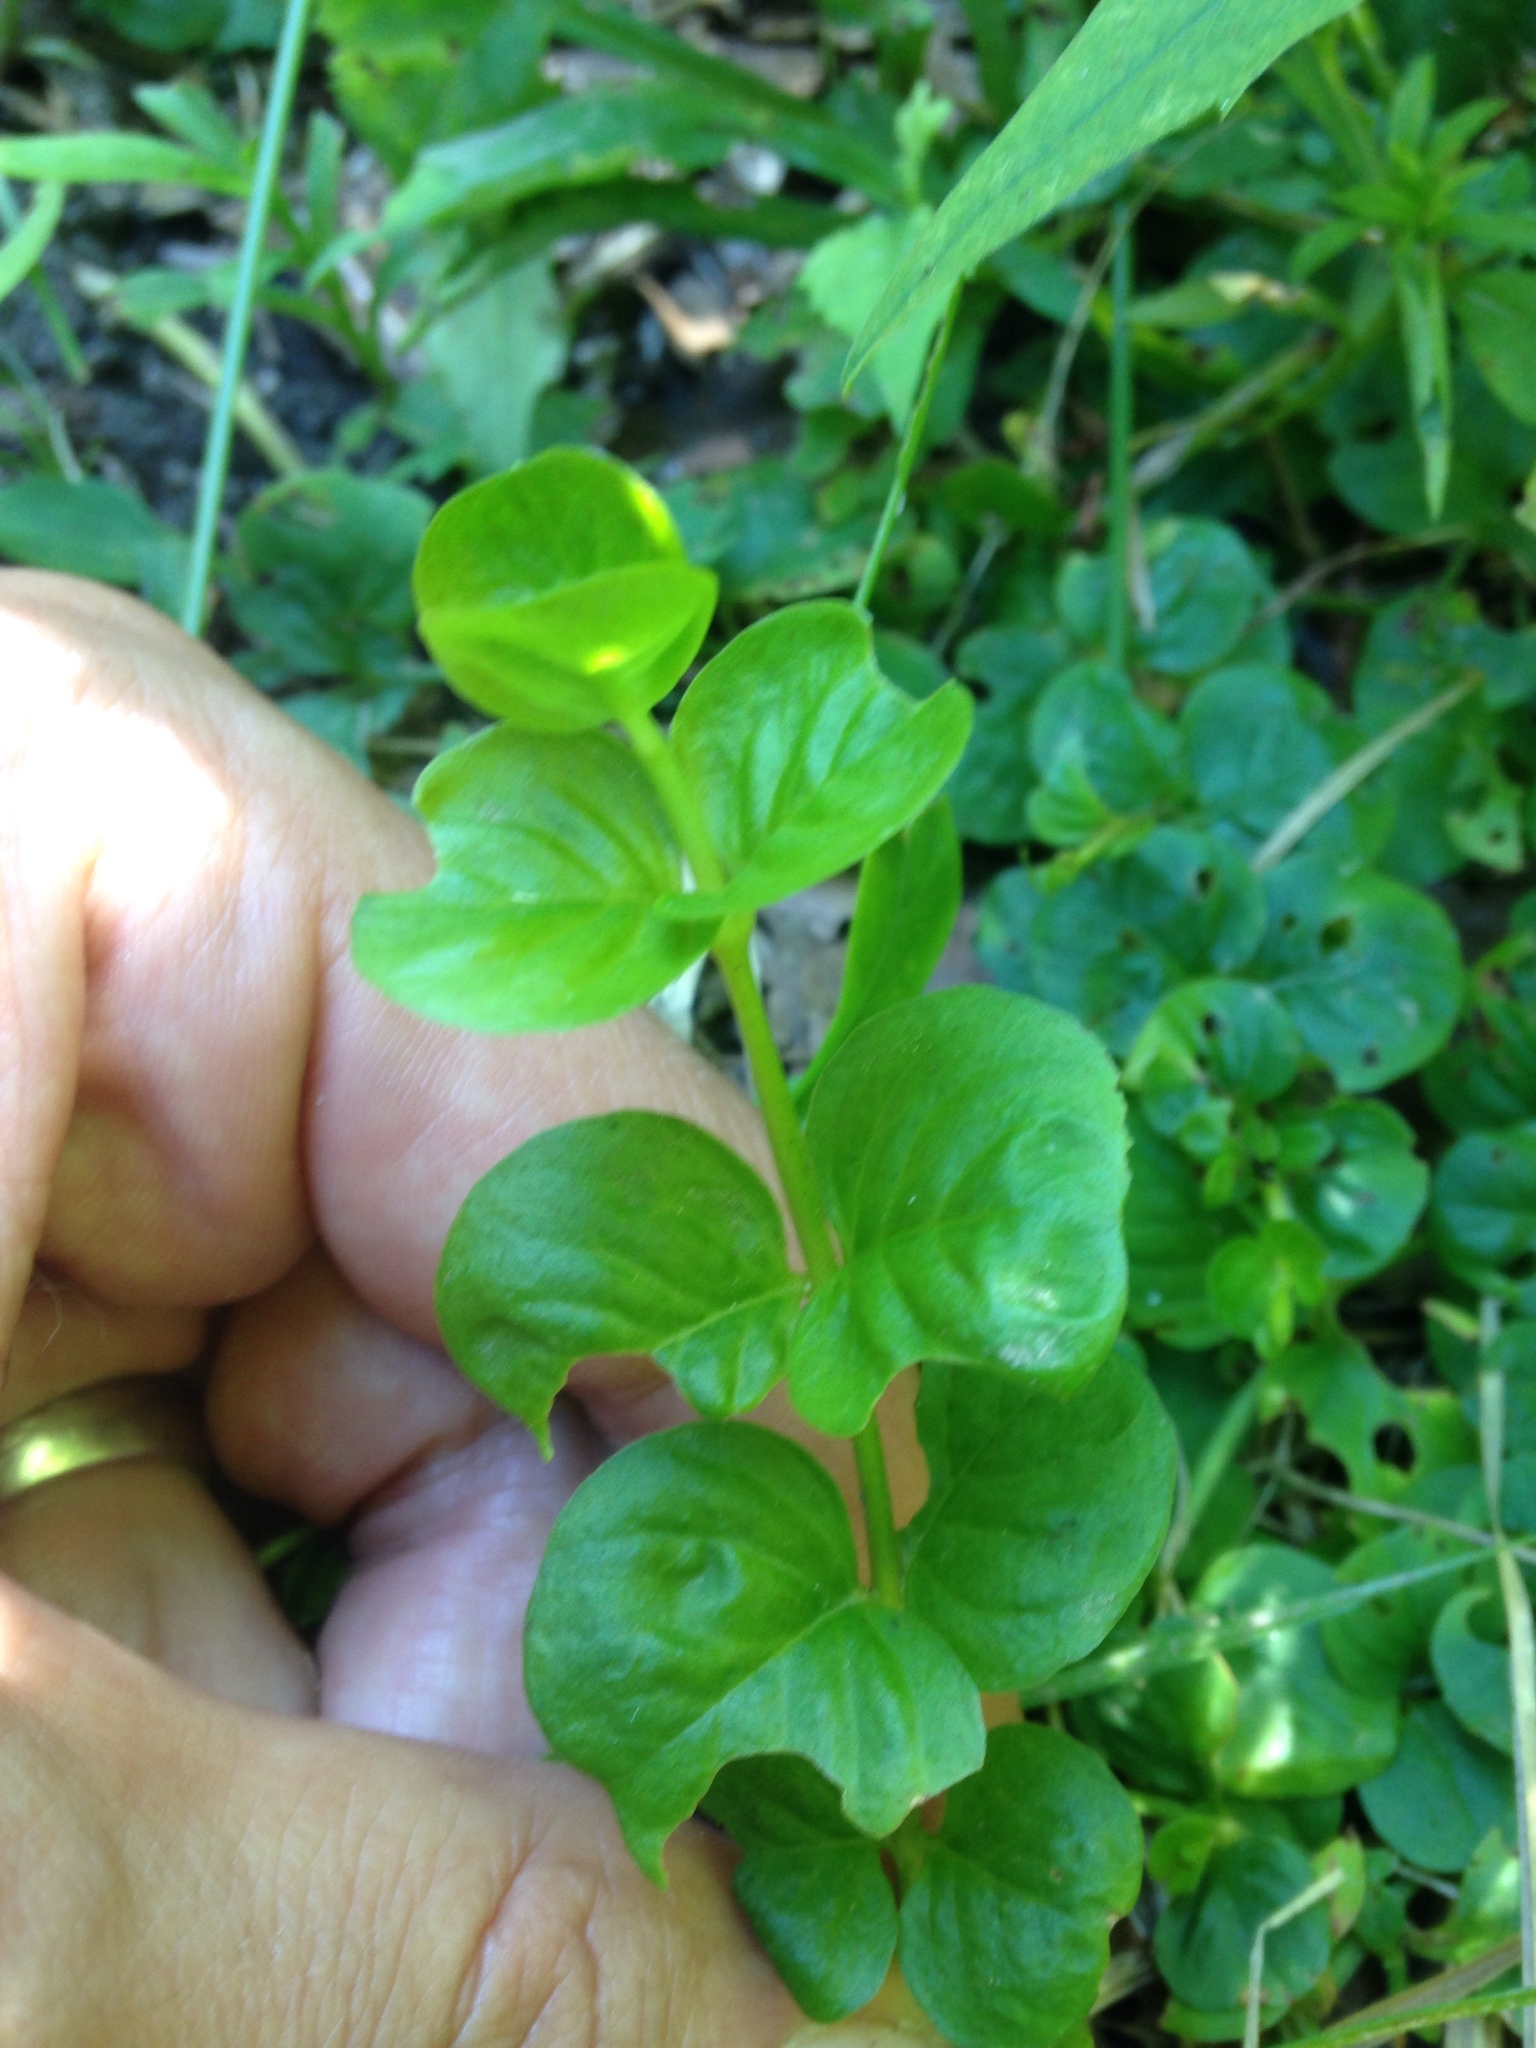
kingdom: Plantae
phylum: Tracheophyta
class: Magnoliopsida
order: Ericales
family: Primulaceae
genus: Lysimachia
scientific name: Lysimachia nummularia
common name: Moneywort
